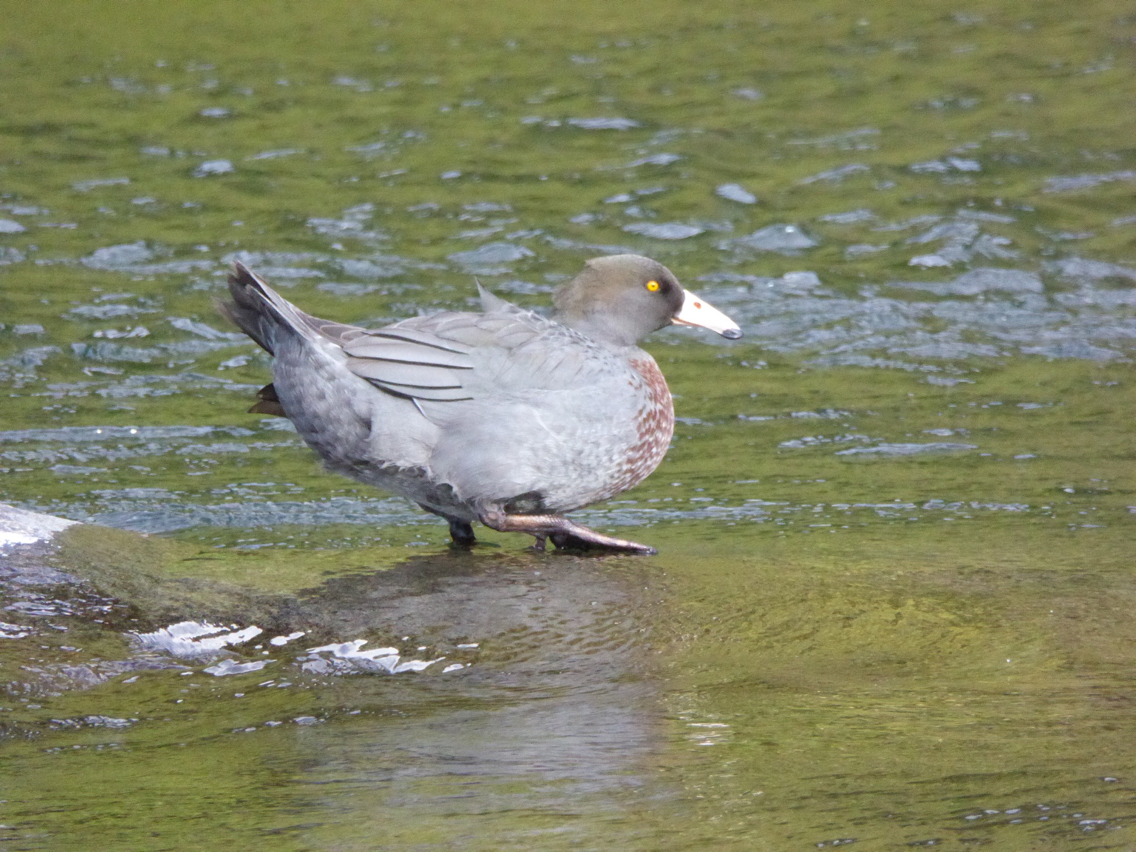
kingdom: Animalia
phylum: Chordata
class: Aves
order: Anseriformes
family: Anatidae
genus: Hymenolaimus
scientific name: Hymenolaimus malacorhynchos
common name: Blue duck
